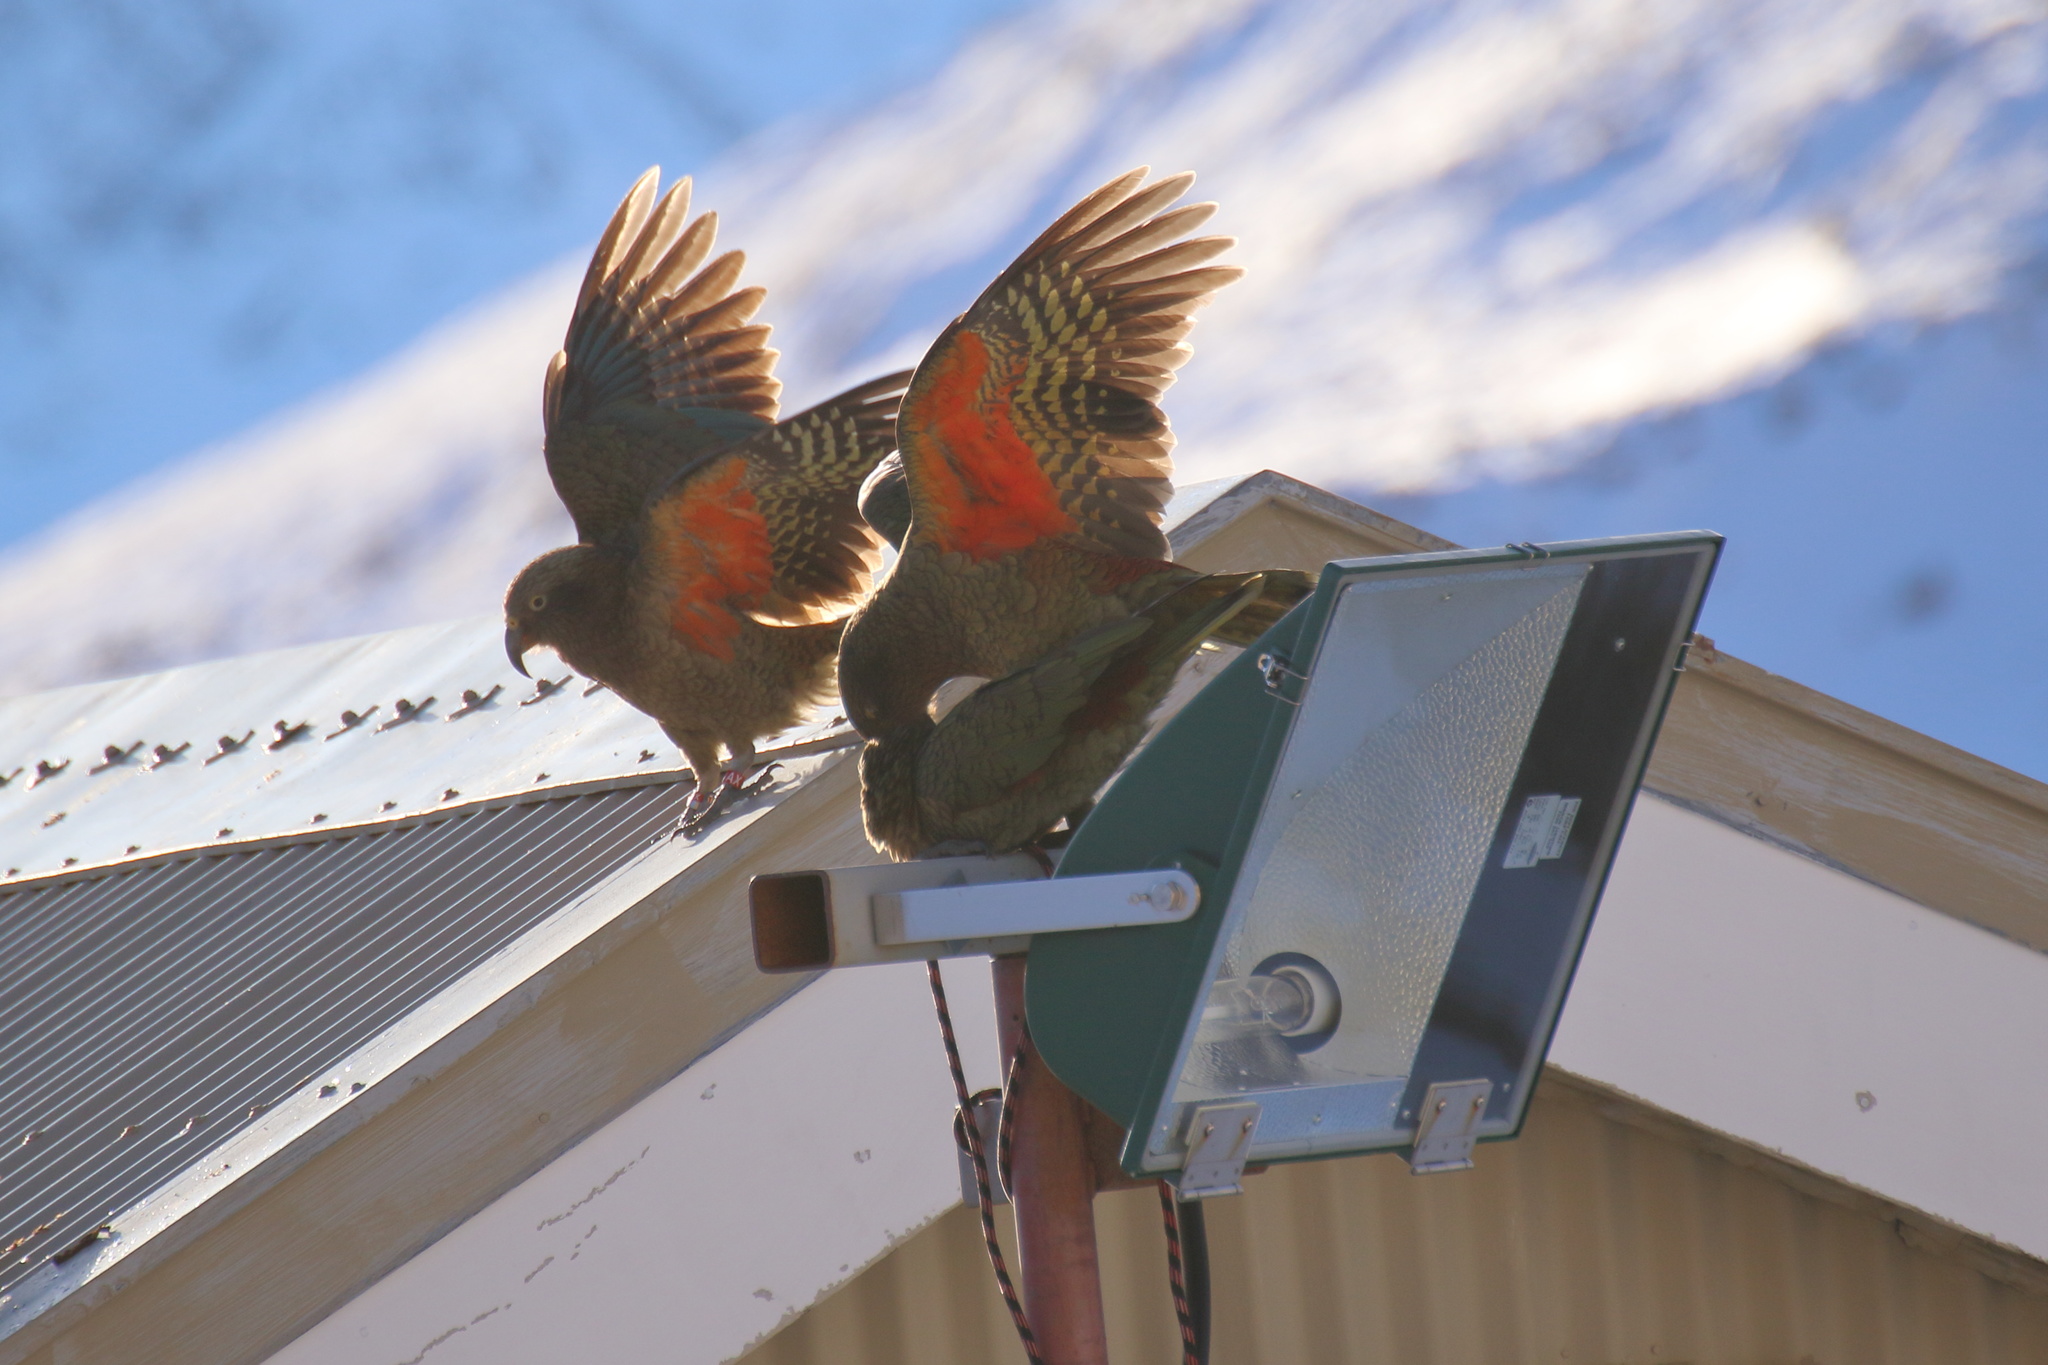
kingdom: Animalia
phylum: Chordata
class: Aves
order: Psittaciformes
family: Psittacidae
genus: Nestor
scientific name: Nestor notabilis
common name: Kea
